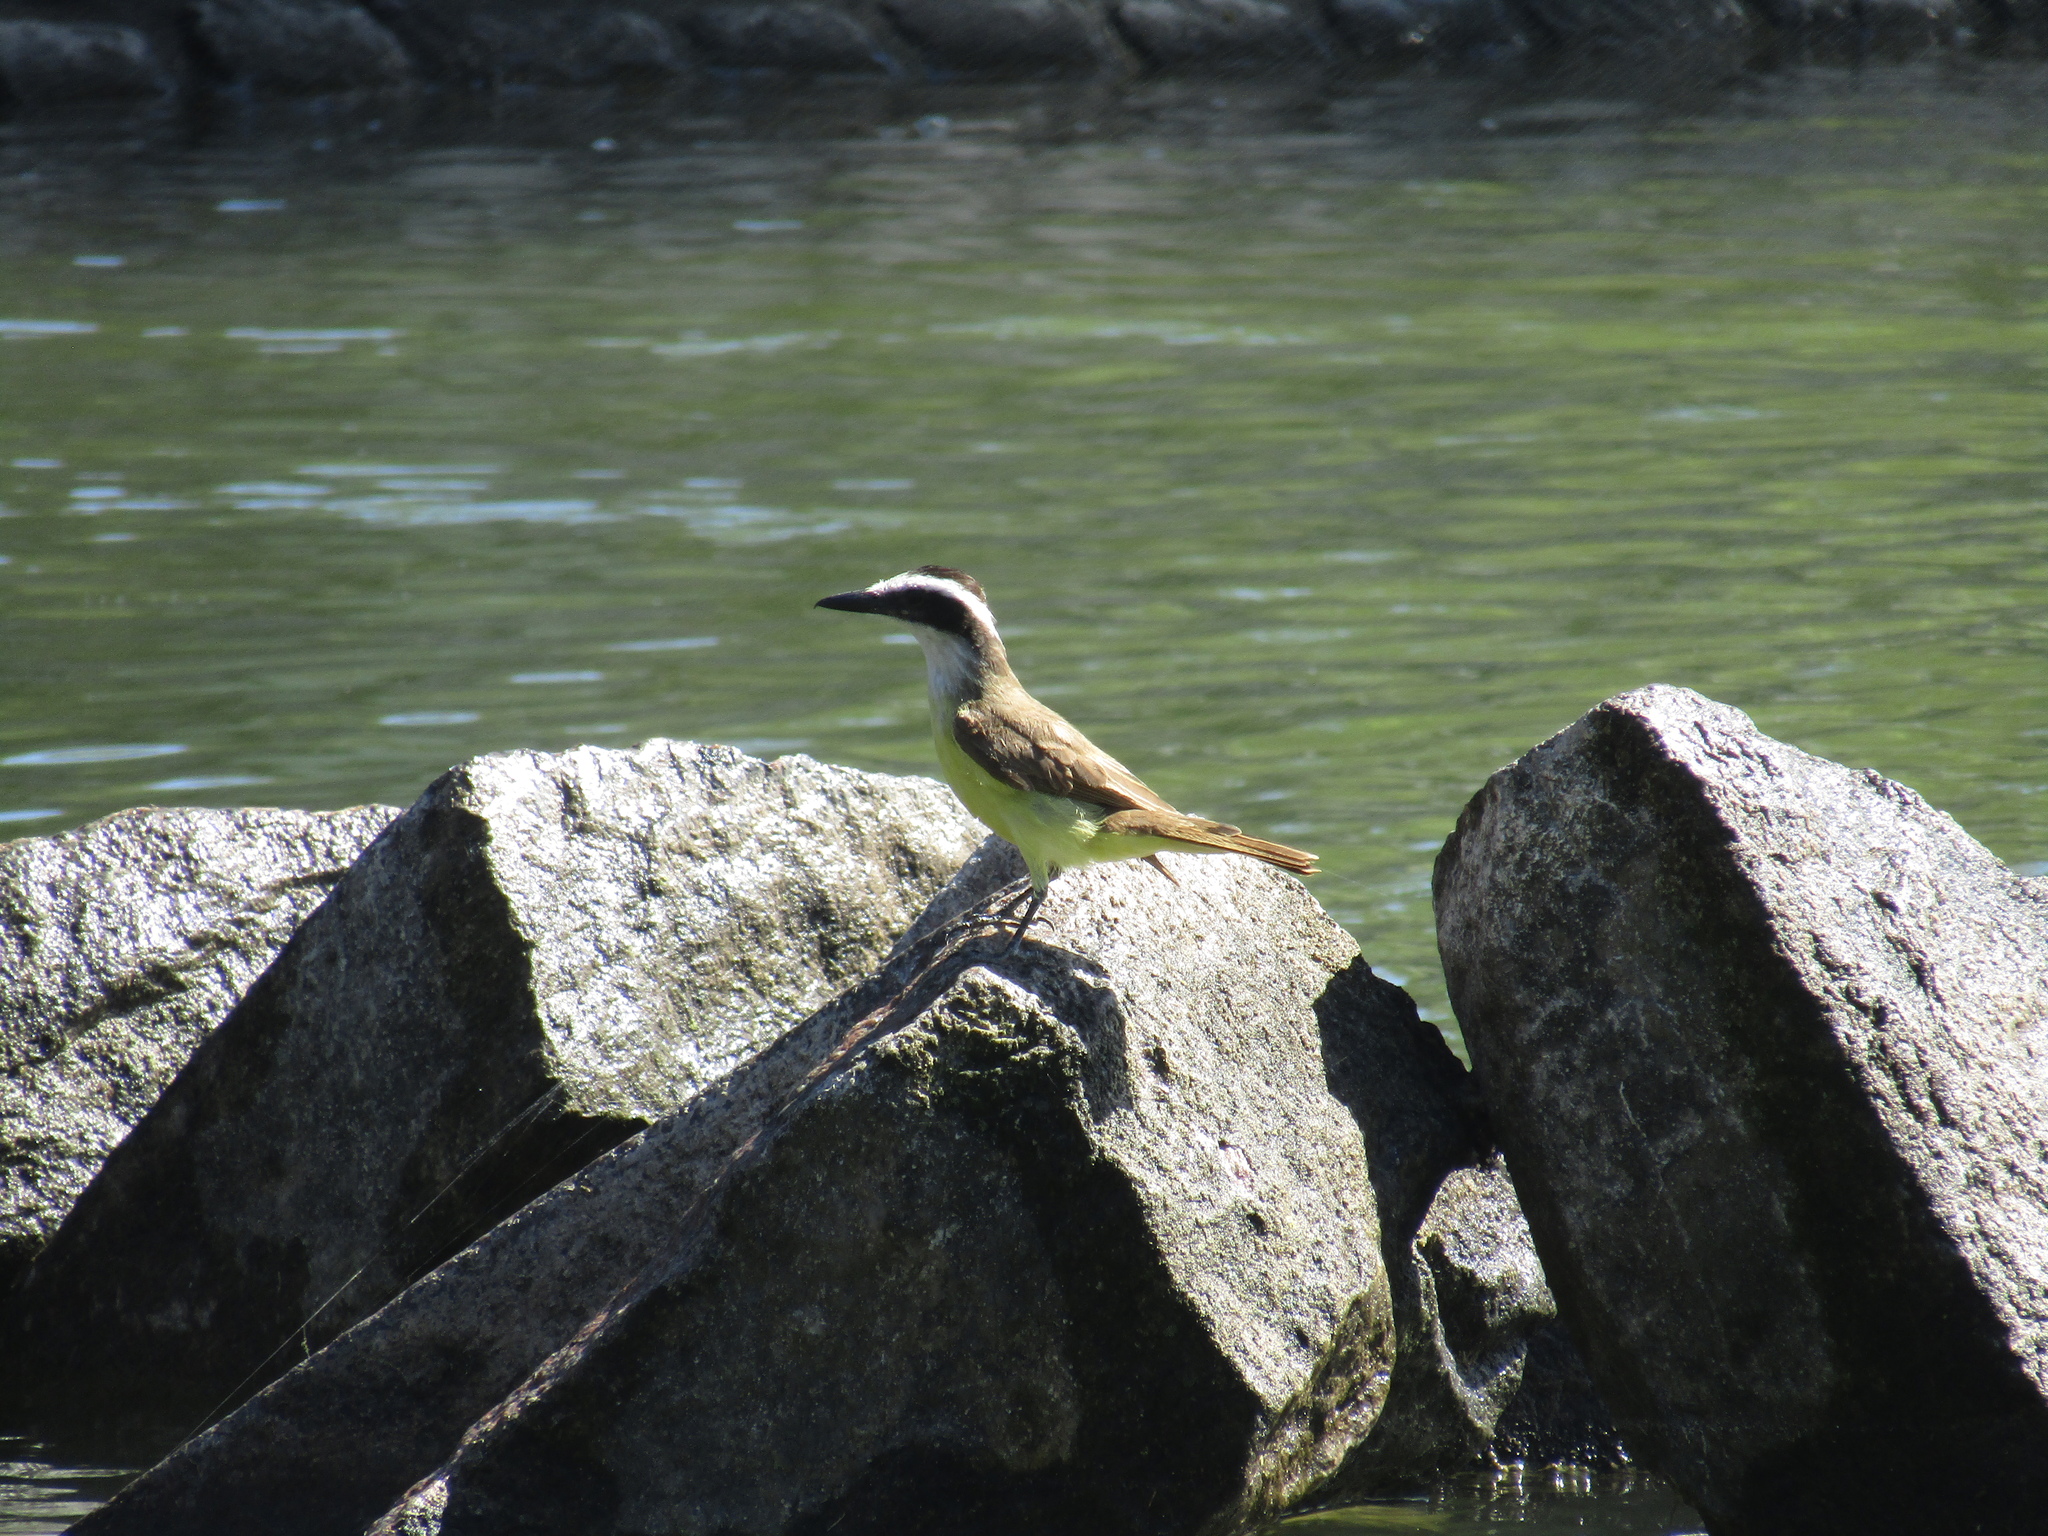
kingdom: Animalia
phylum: Chordata
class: Aves
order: Passeriformes
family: Tyrannidae
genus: Pitangus
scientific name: Pitangus sulphuratus
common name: Great kiskadee
